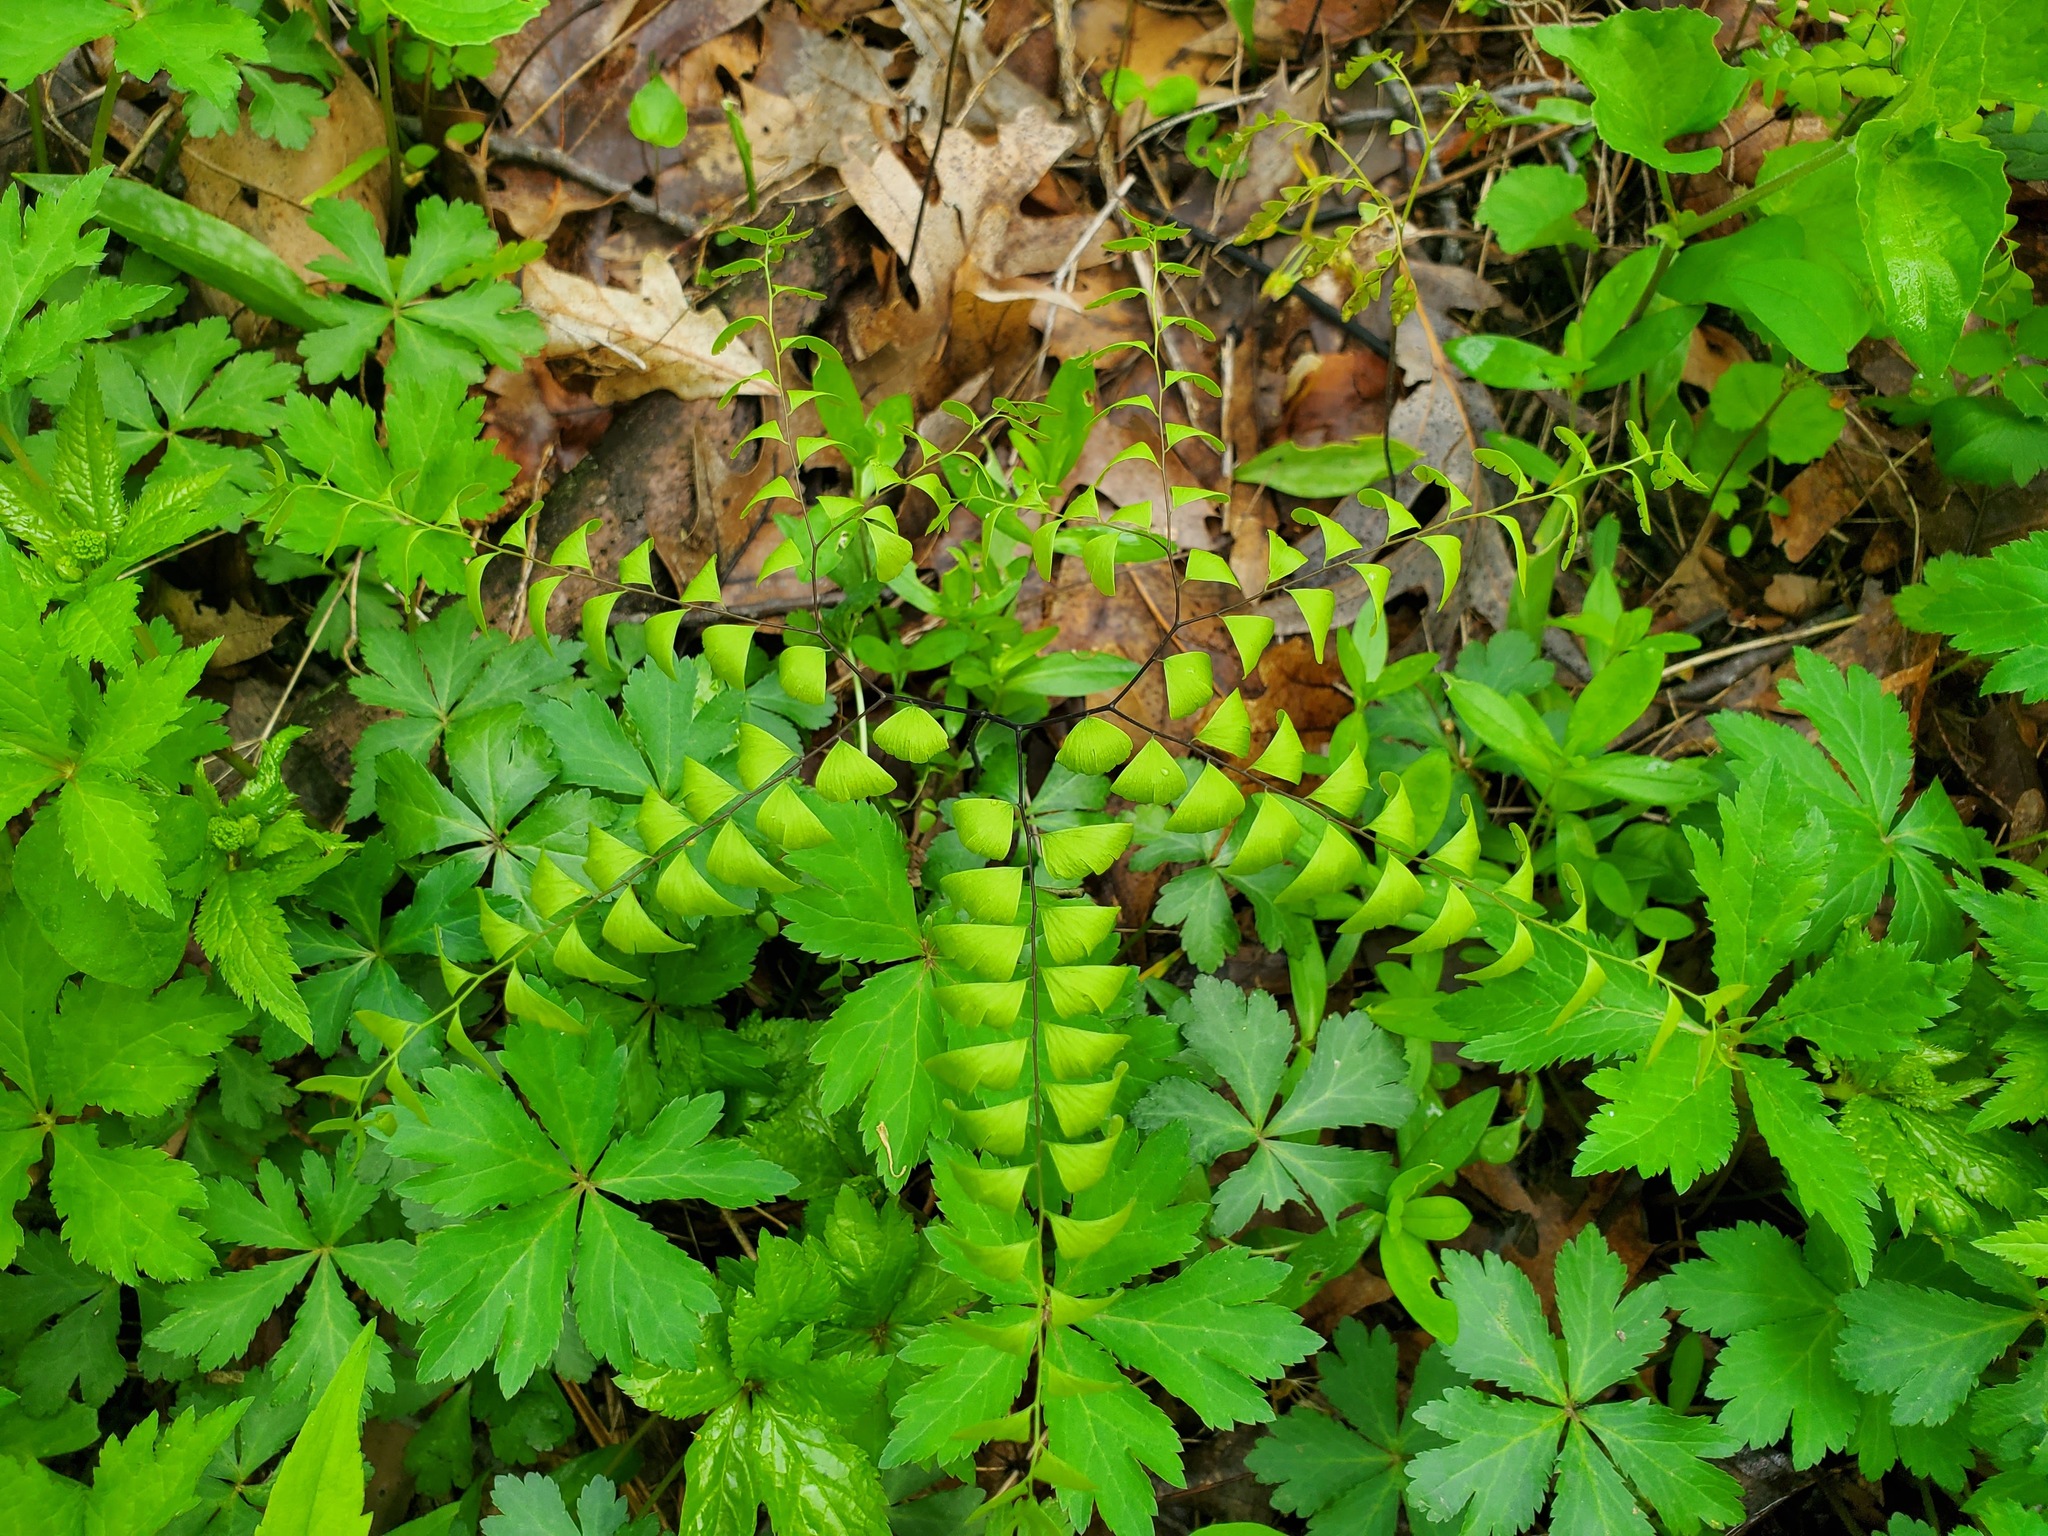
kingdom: Plantae
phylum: Tracheophyta
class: Polypodiopsida
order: Polypodiales
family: Pteridaceae
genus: Adiantum
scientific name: Adiantum pedatum
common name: Five-finger fern
